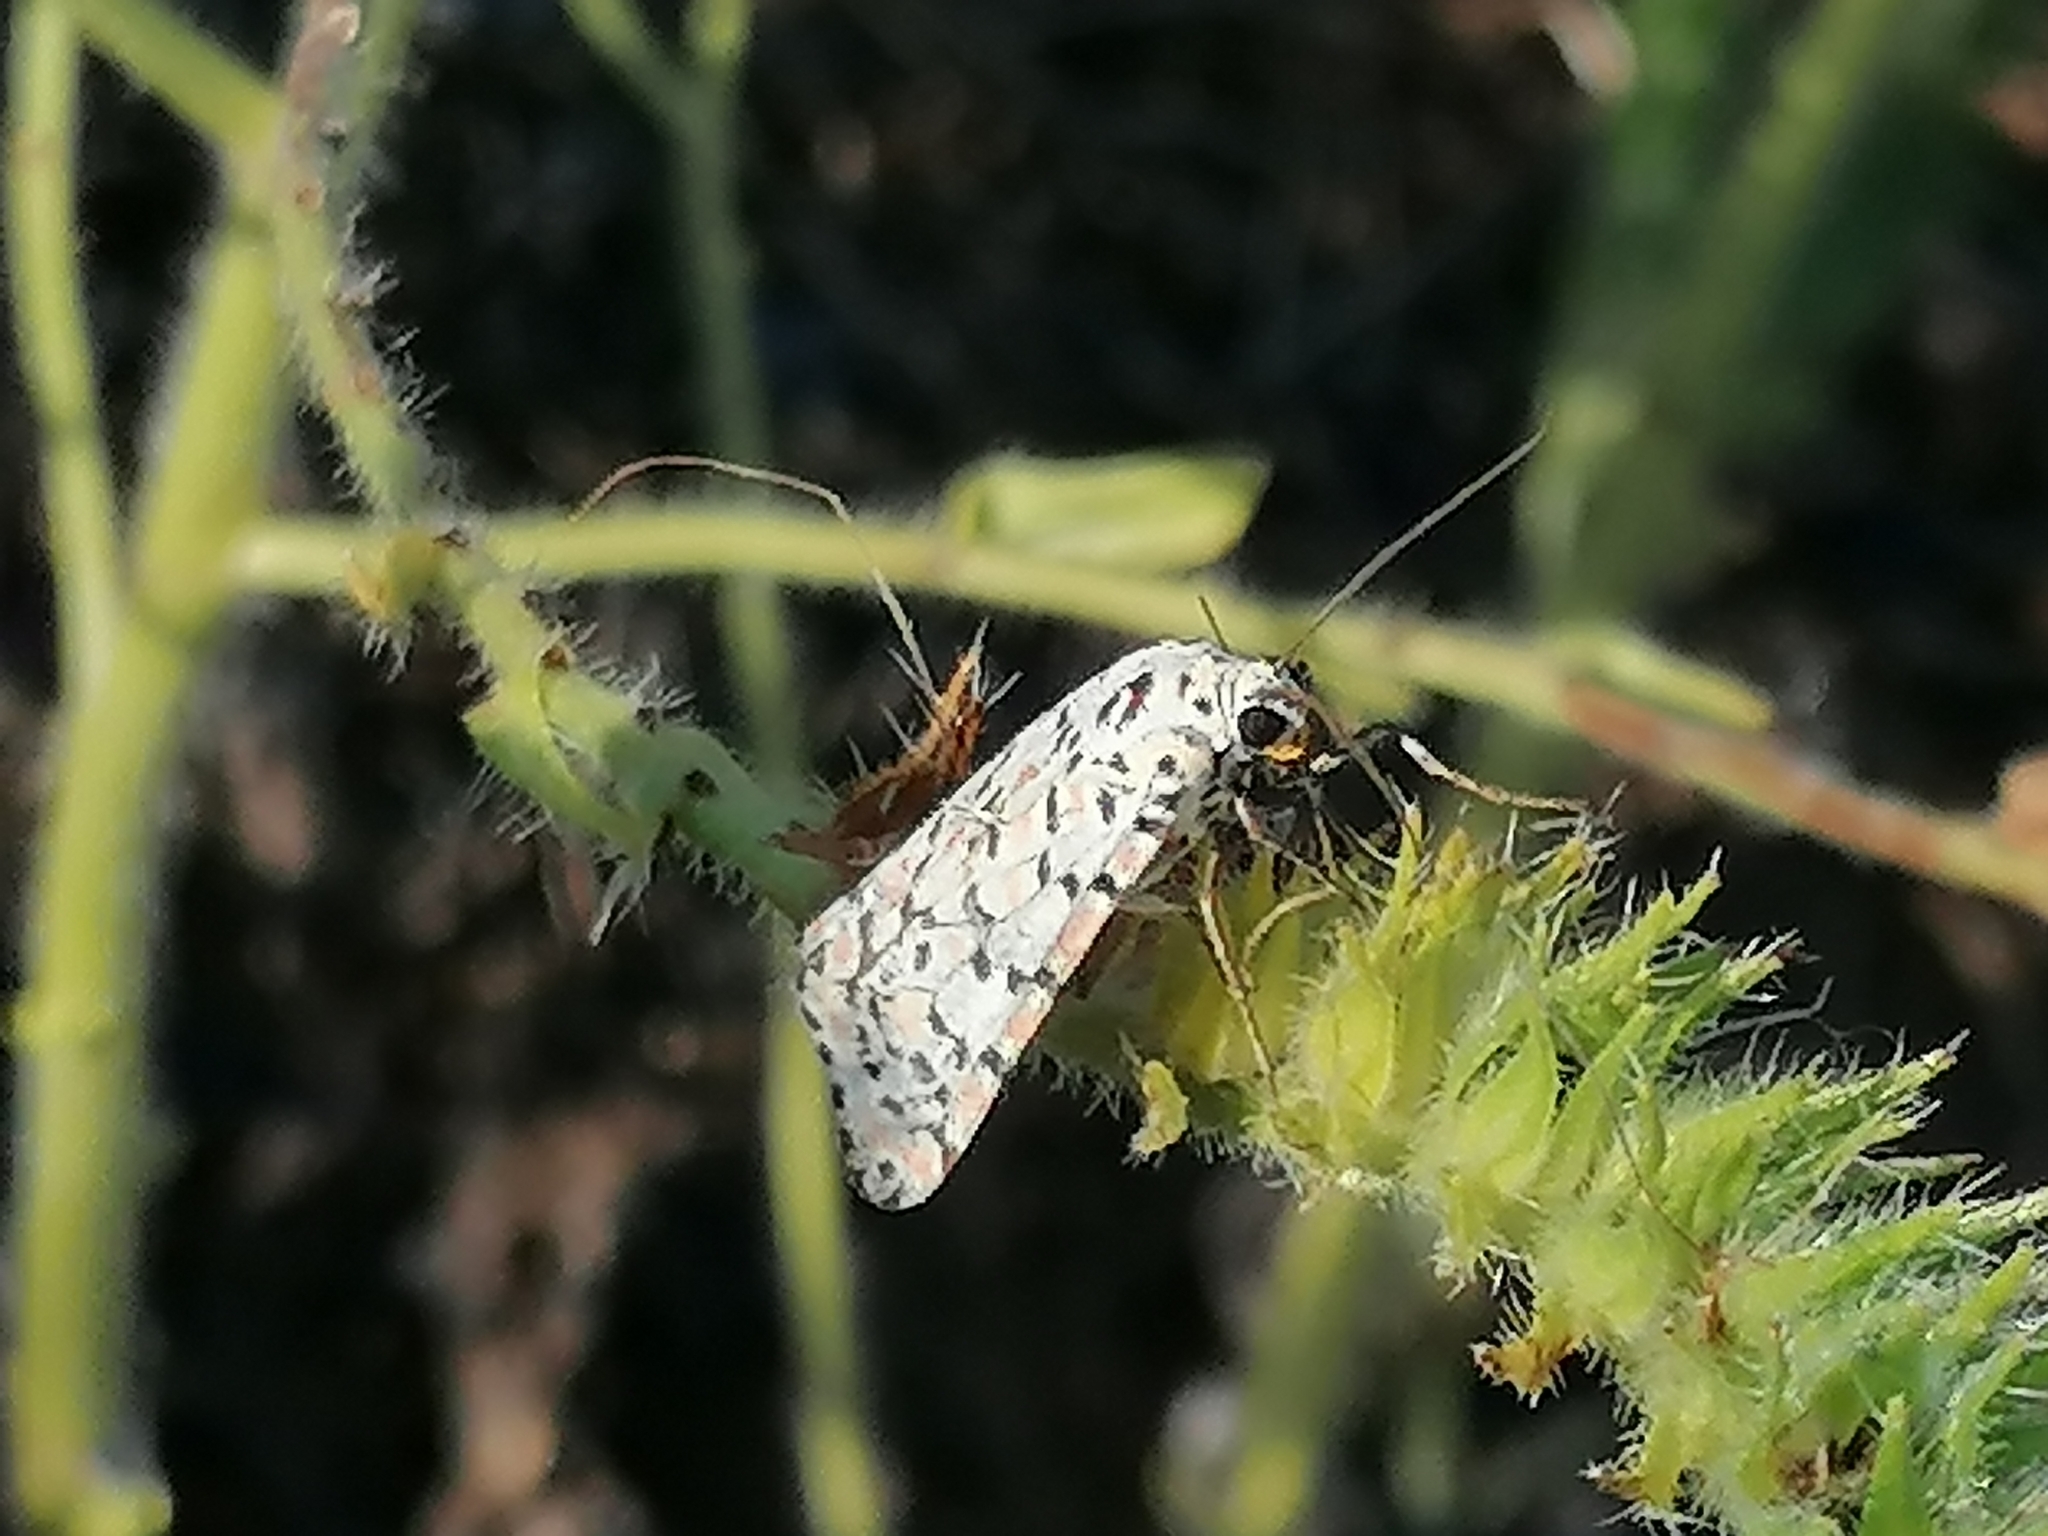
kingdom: Animalia
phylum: Arthropoda
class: Insecta
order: Lepidoptera
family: Erebidae
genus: Utetheisa
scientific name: Utetheisa pulchella
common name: Crimson speckled
